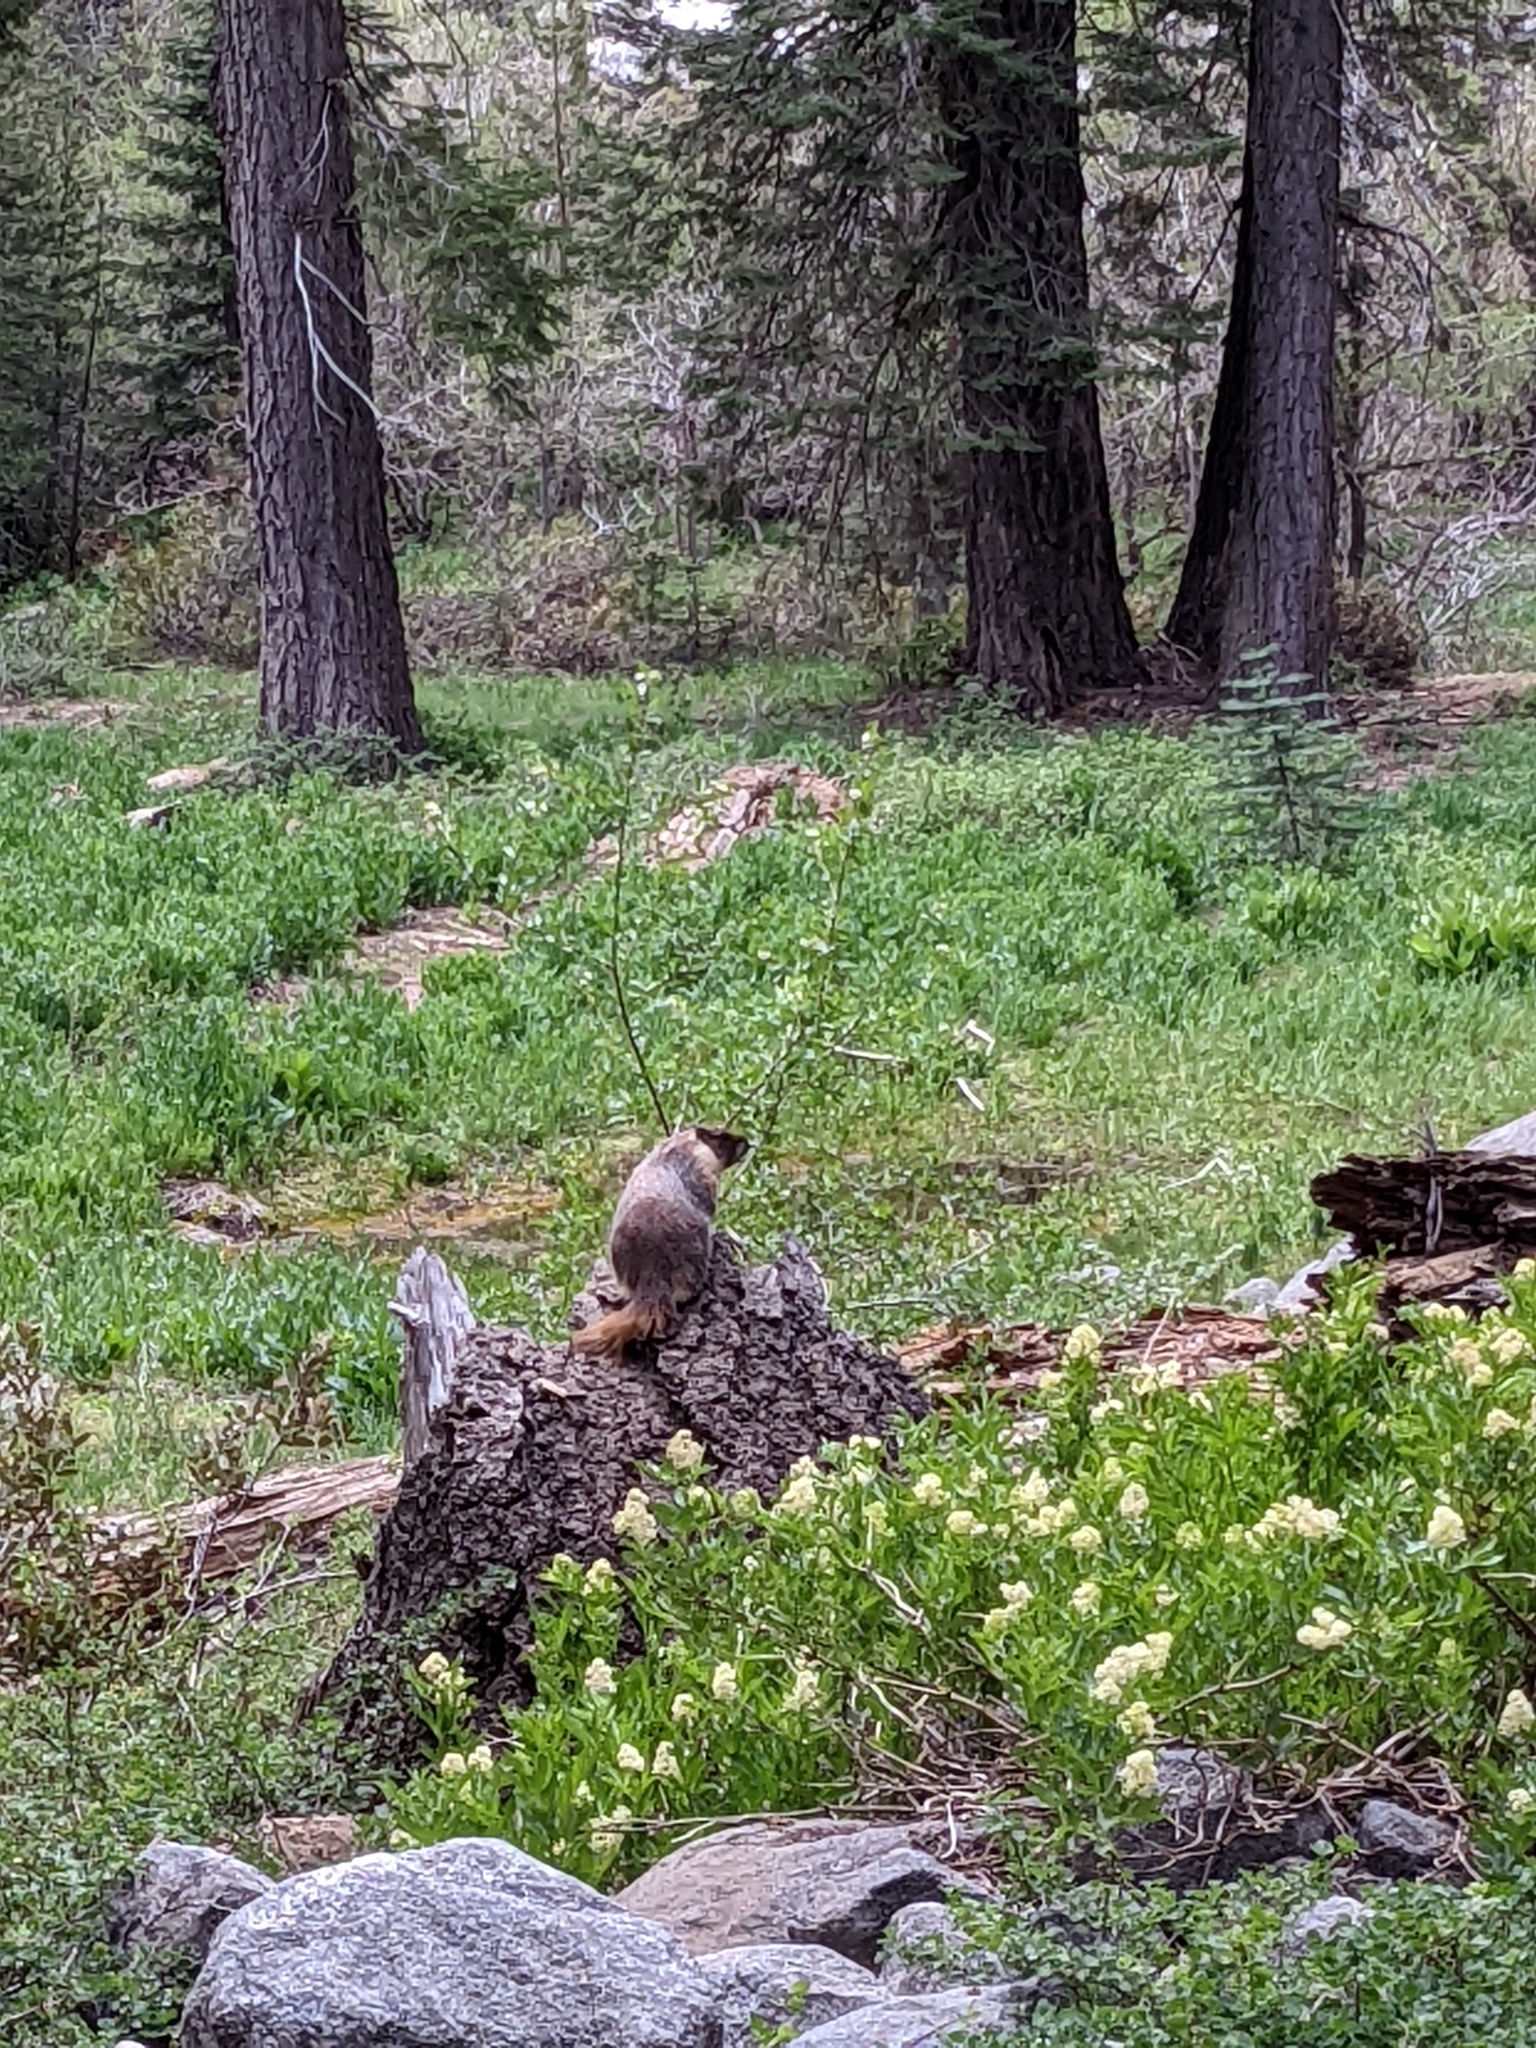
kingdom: Animalia
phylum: Chordata
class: Mammalia
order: Rodentia
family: Sciuridae
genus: Marmota
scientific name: Marmota flaviventris
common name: Yellow-bellied marmot
